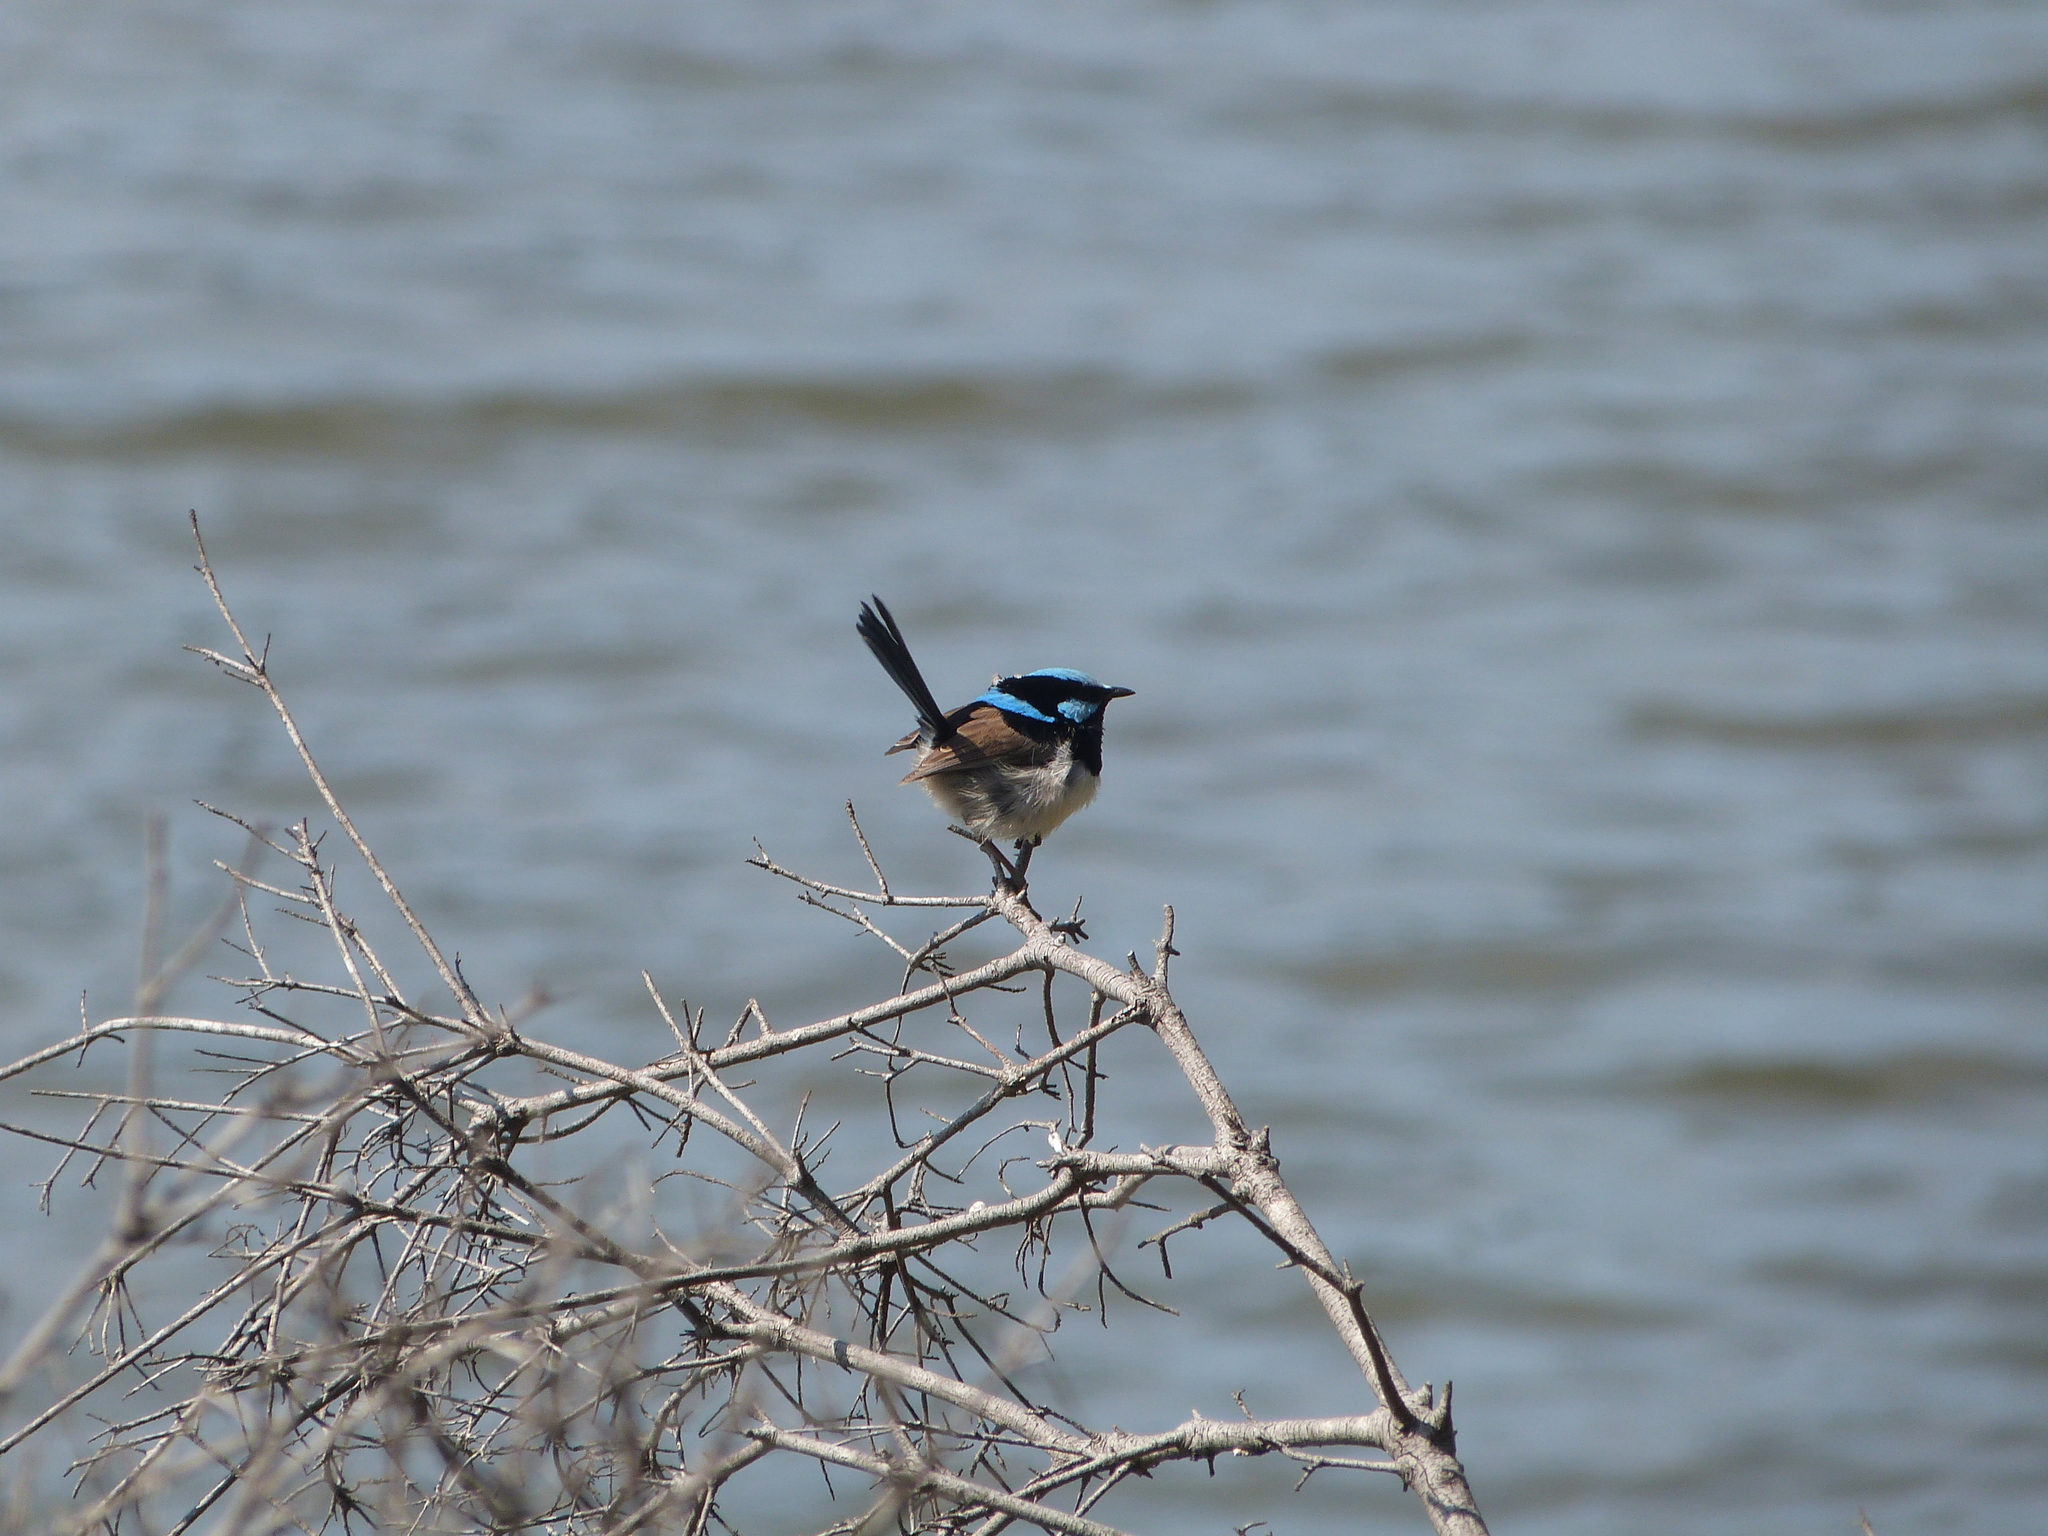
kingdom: Animalia
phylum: Chordata
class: Aves
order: Passeriformes
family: Maluridae
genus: Malurus
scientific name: Malurus cyaneus
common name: Superb fairywren
